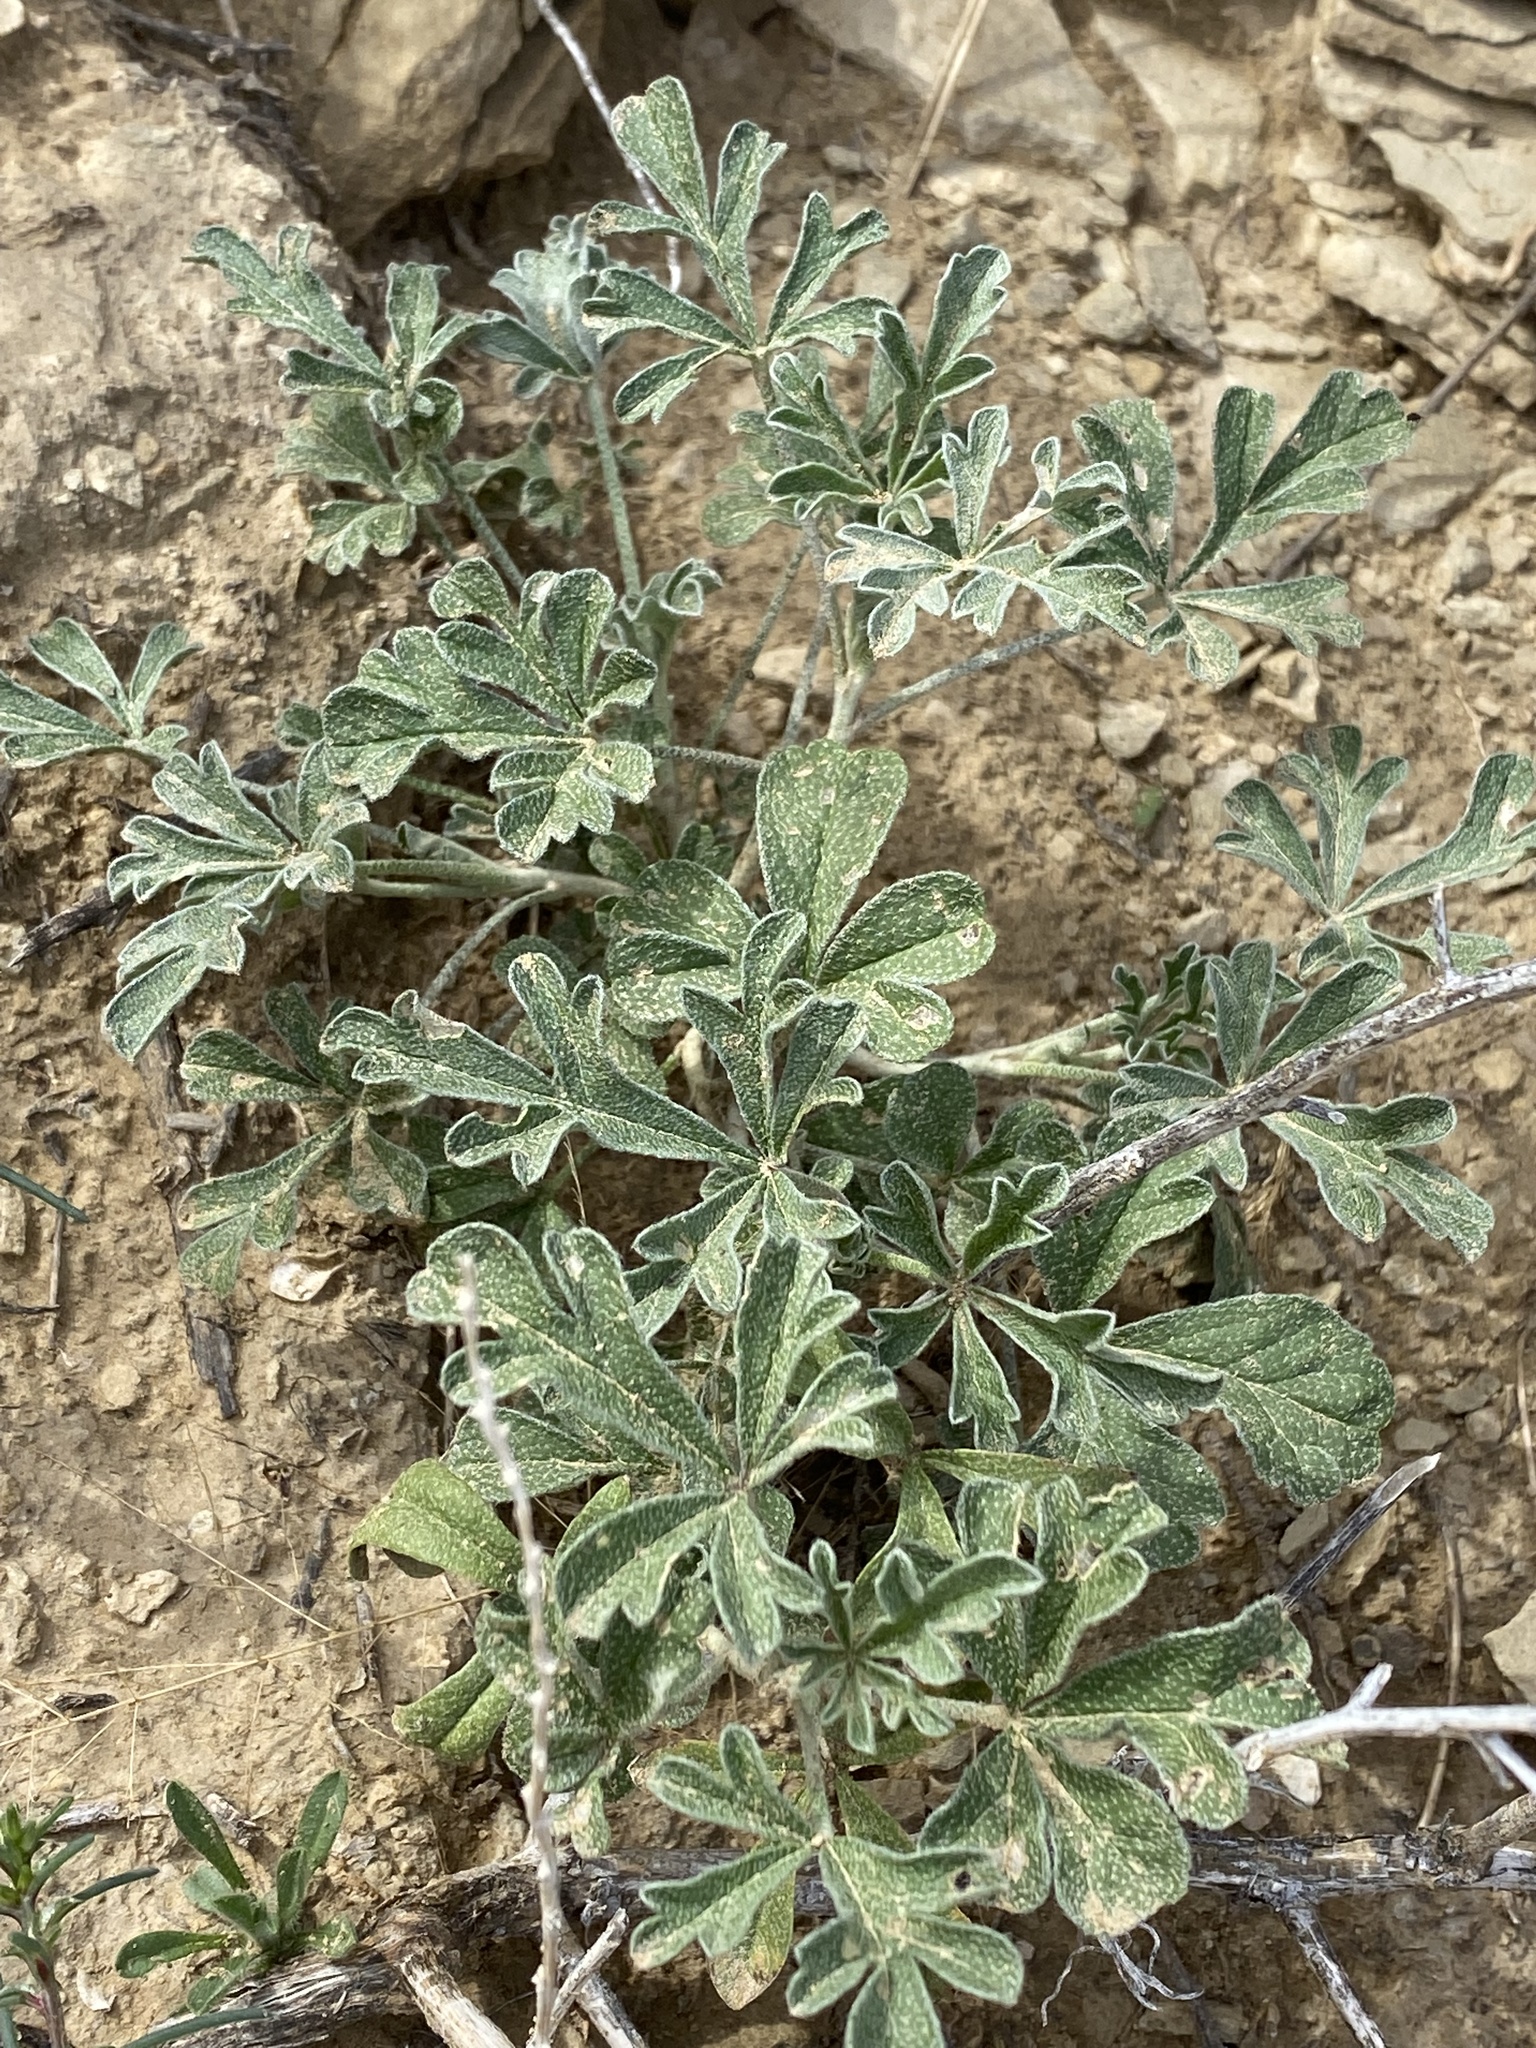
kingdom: Plantae
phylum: Tracheophyta
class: Magnoliopsida
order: Malvales
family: Malvaceae
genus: Sphaeralcea
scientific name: Sphaeralcea grossulariifolia
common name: Current-leaf globe-mallow
